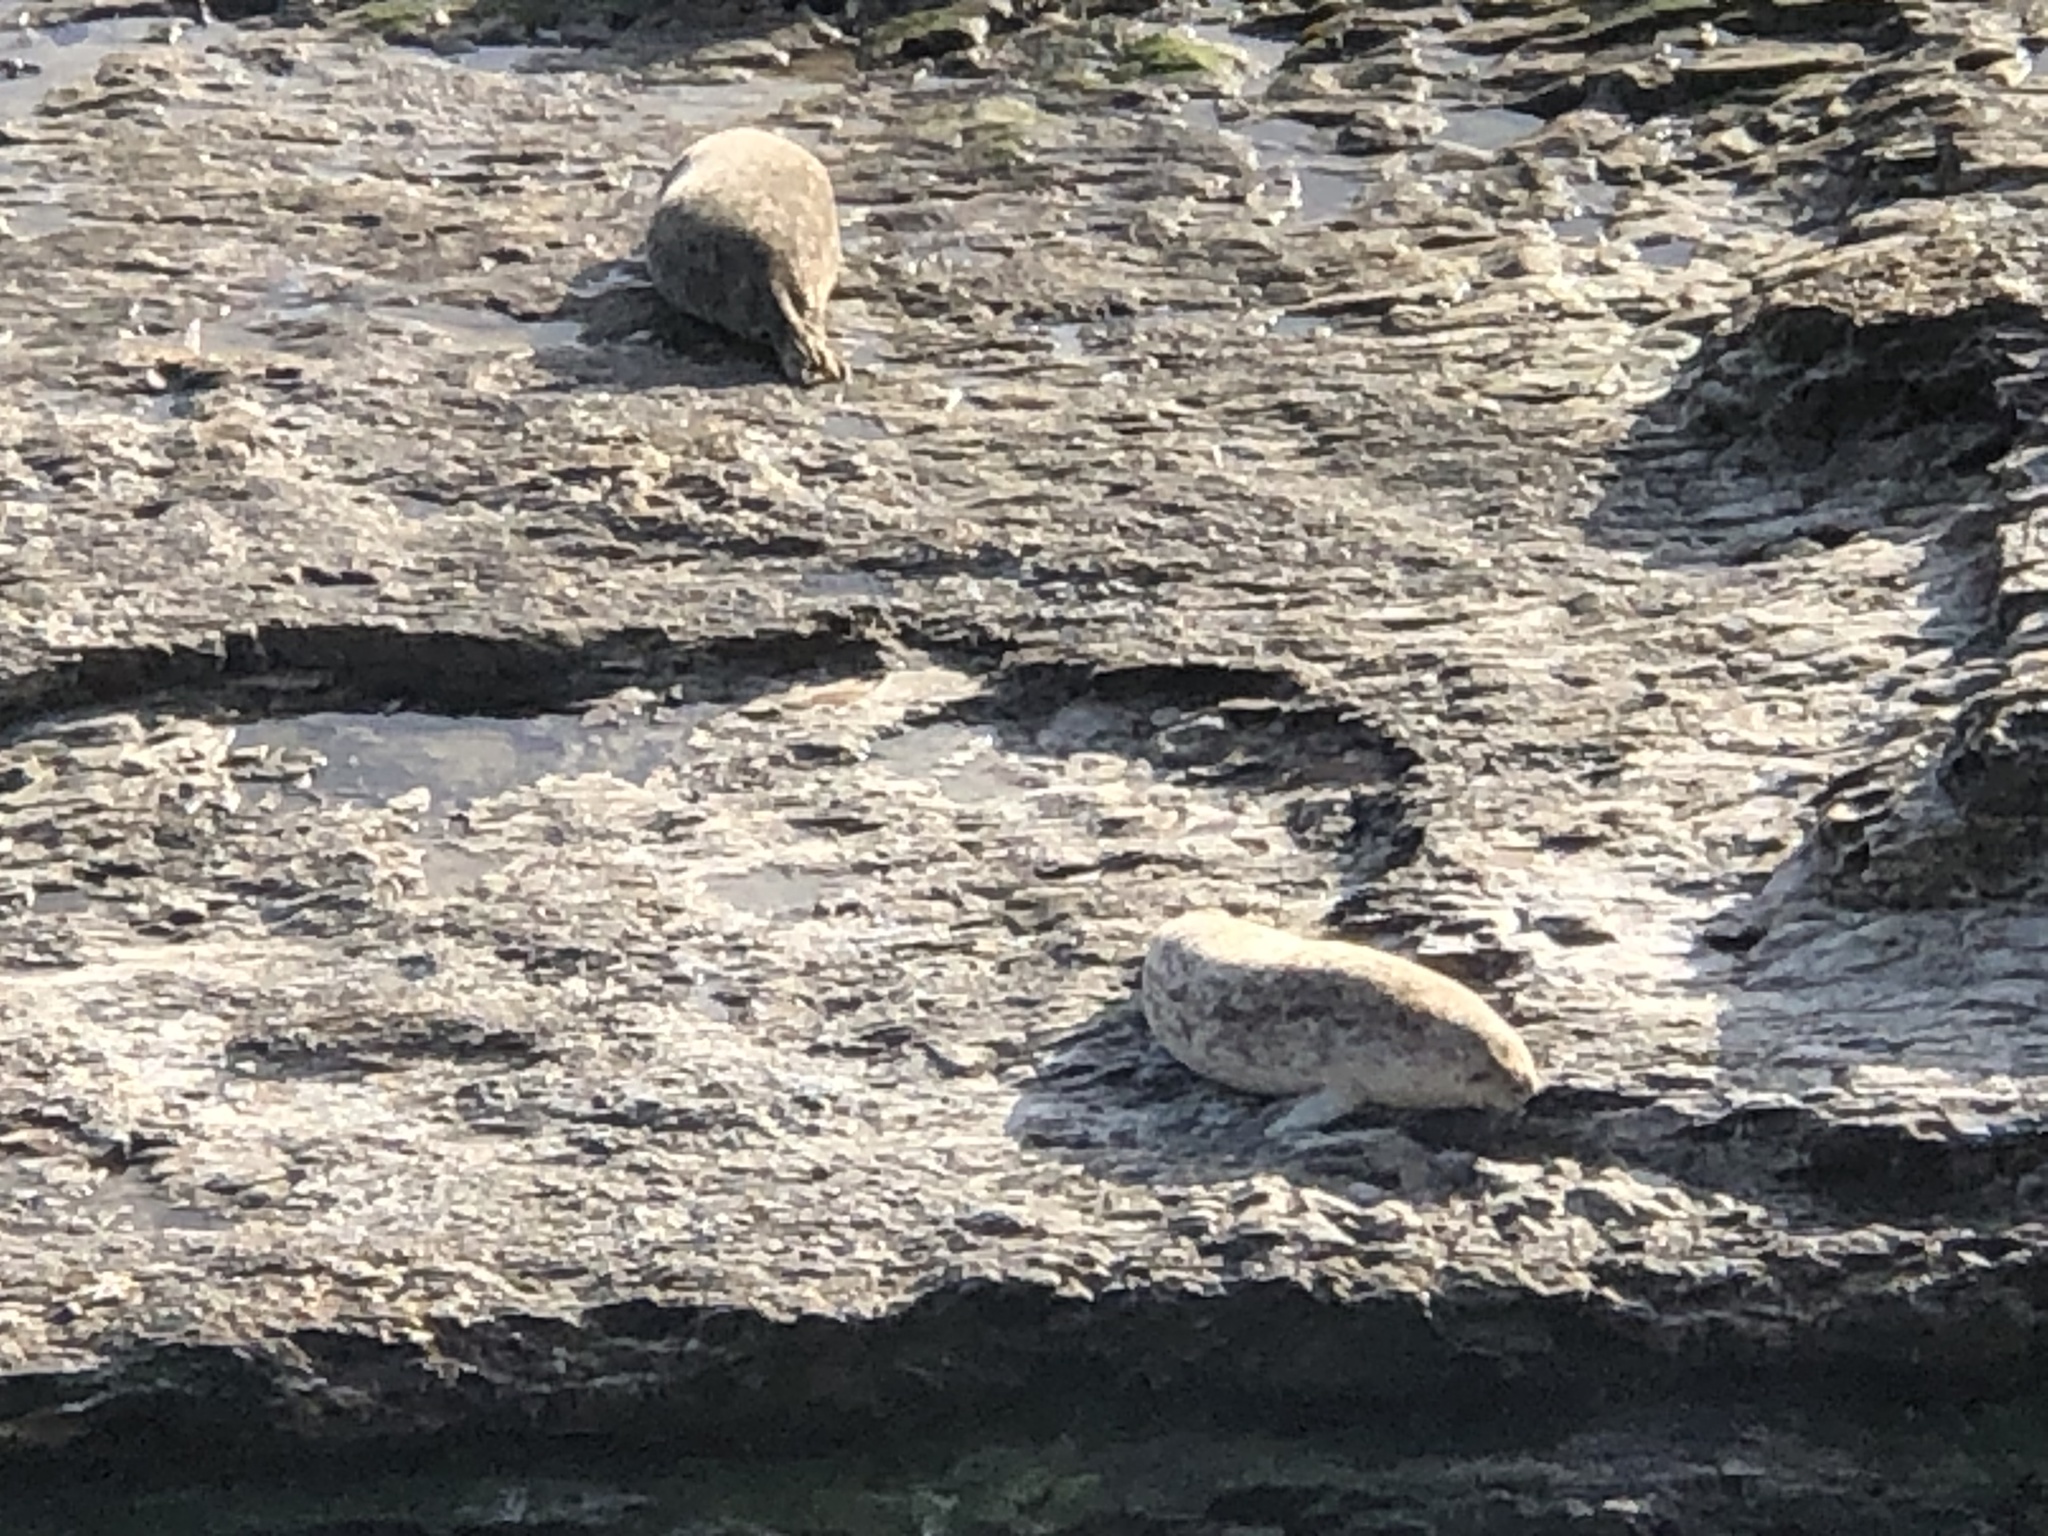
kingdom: Animalia
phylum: Chordata
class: Mammalia
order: Carnivora
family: Phocidae
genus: Phoca
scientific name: Phoca vitulina
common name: Harbor seal
